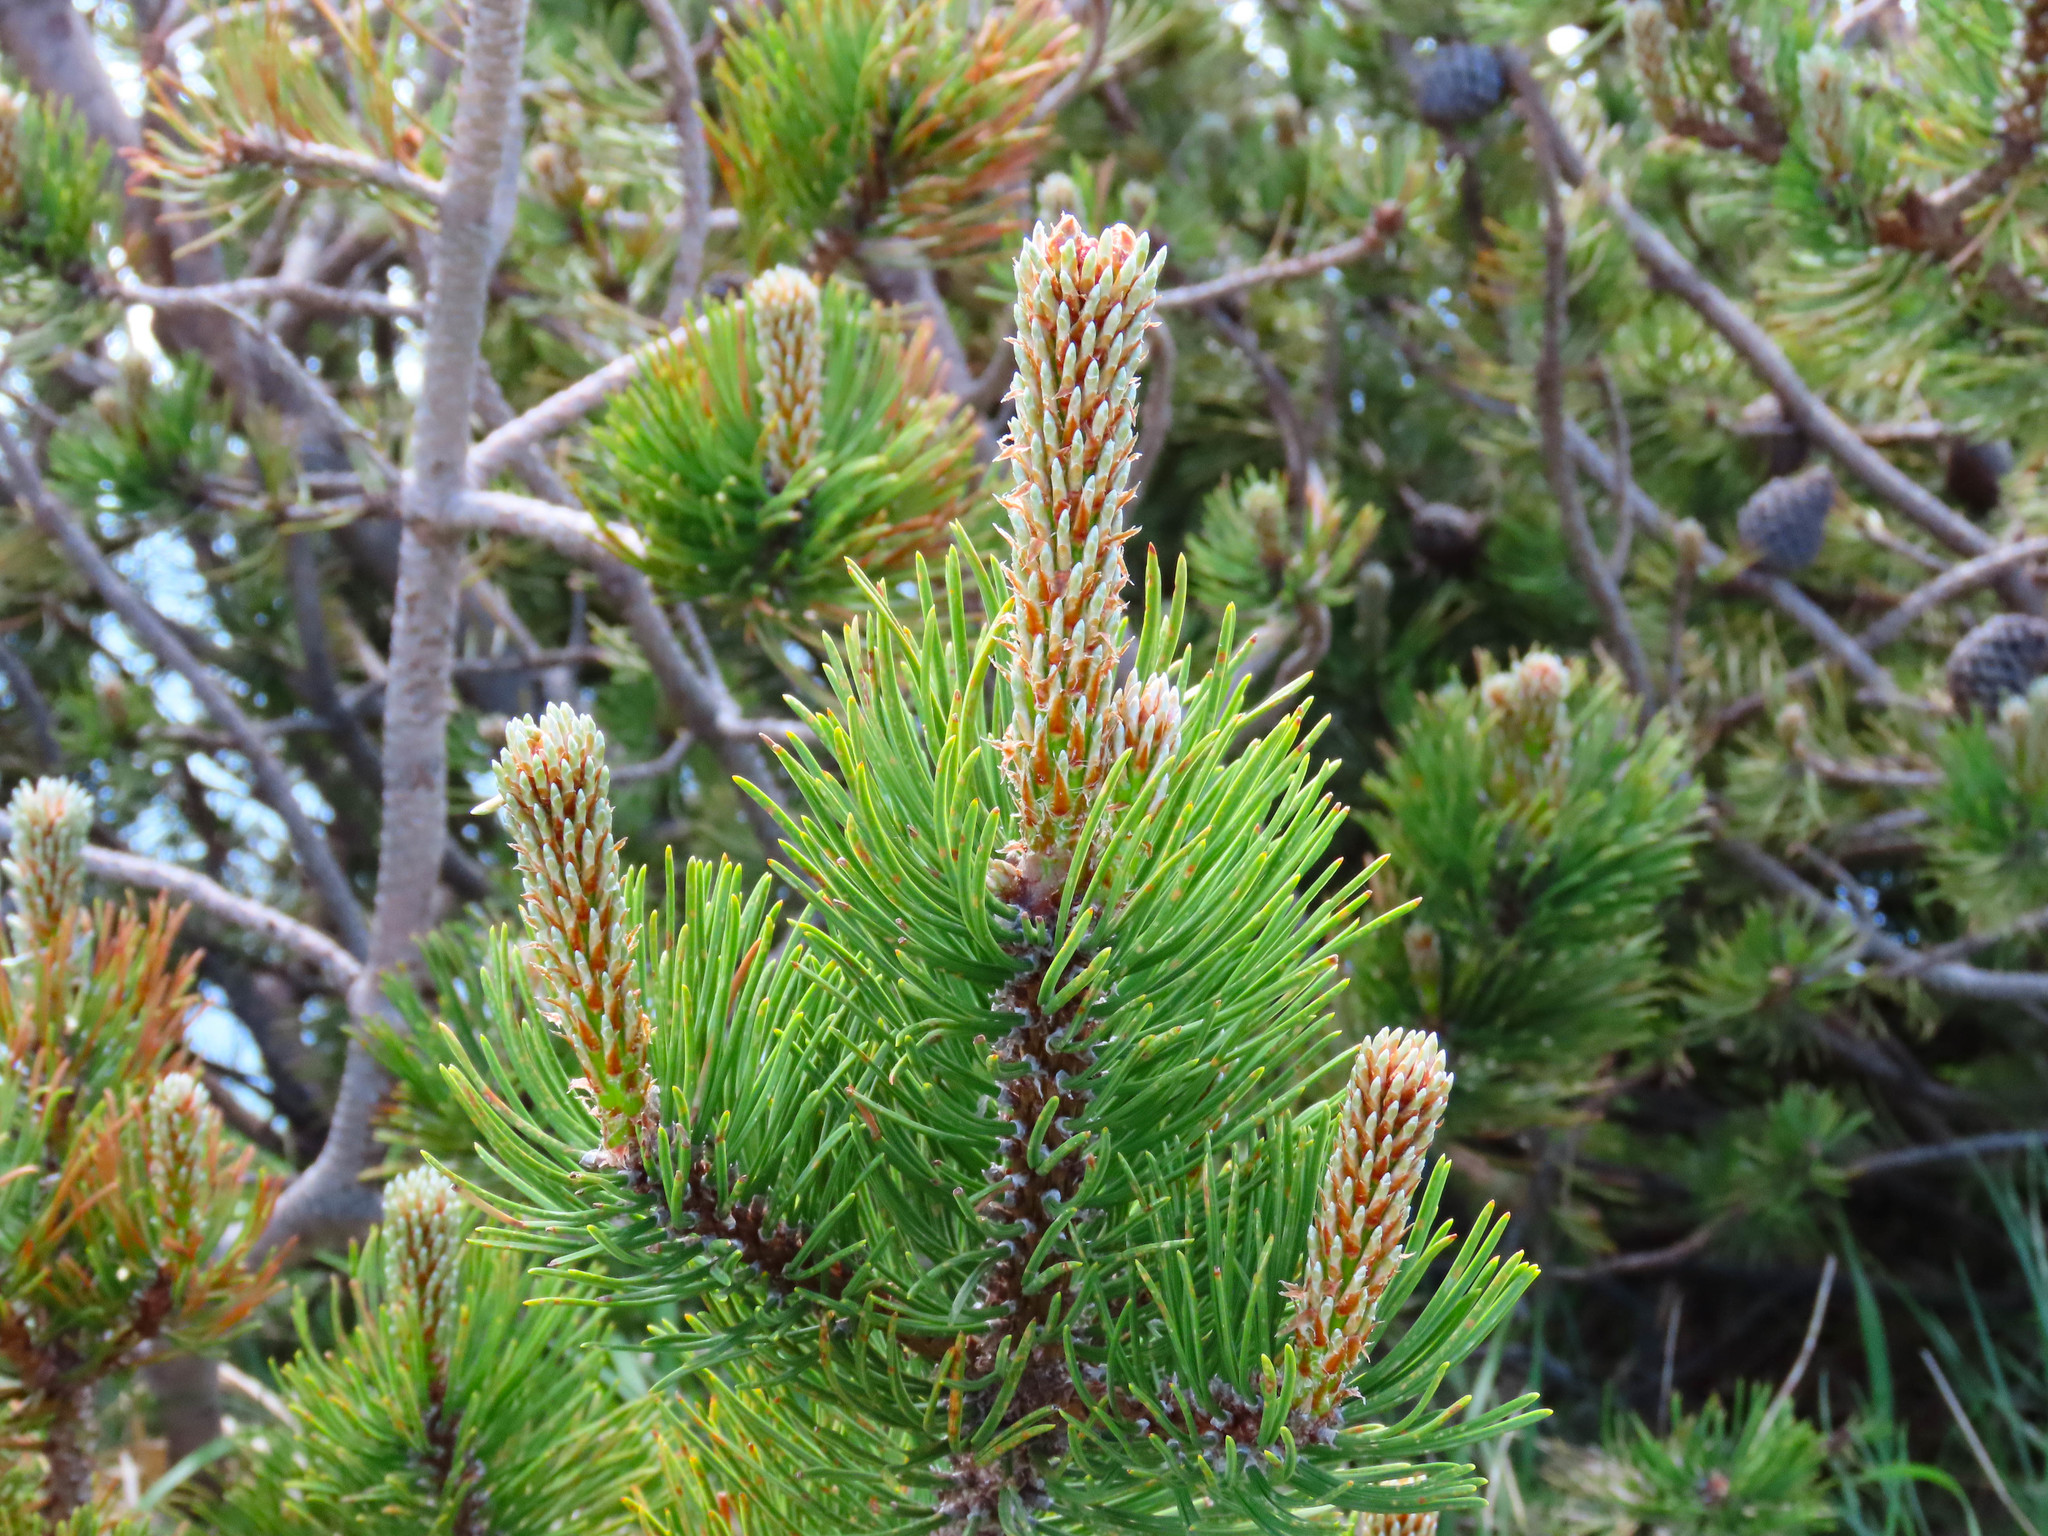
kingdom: Plantae
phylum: Tracheophyta
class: Pinopsida
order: Pinales
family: Pinaceae
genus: Pinus
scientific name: Pinus mugo
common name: Mugo pine
